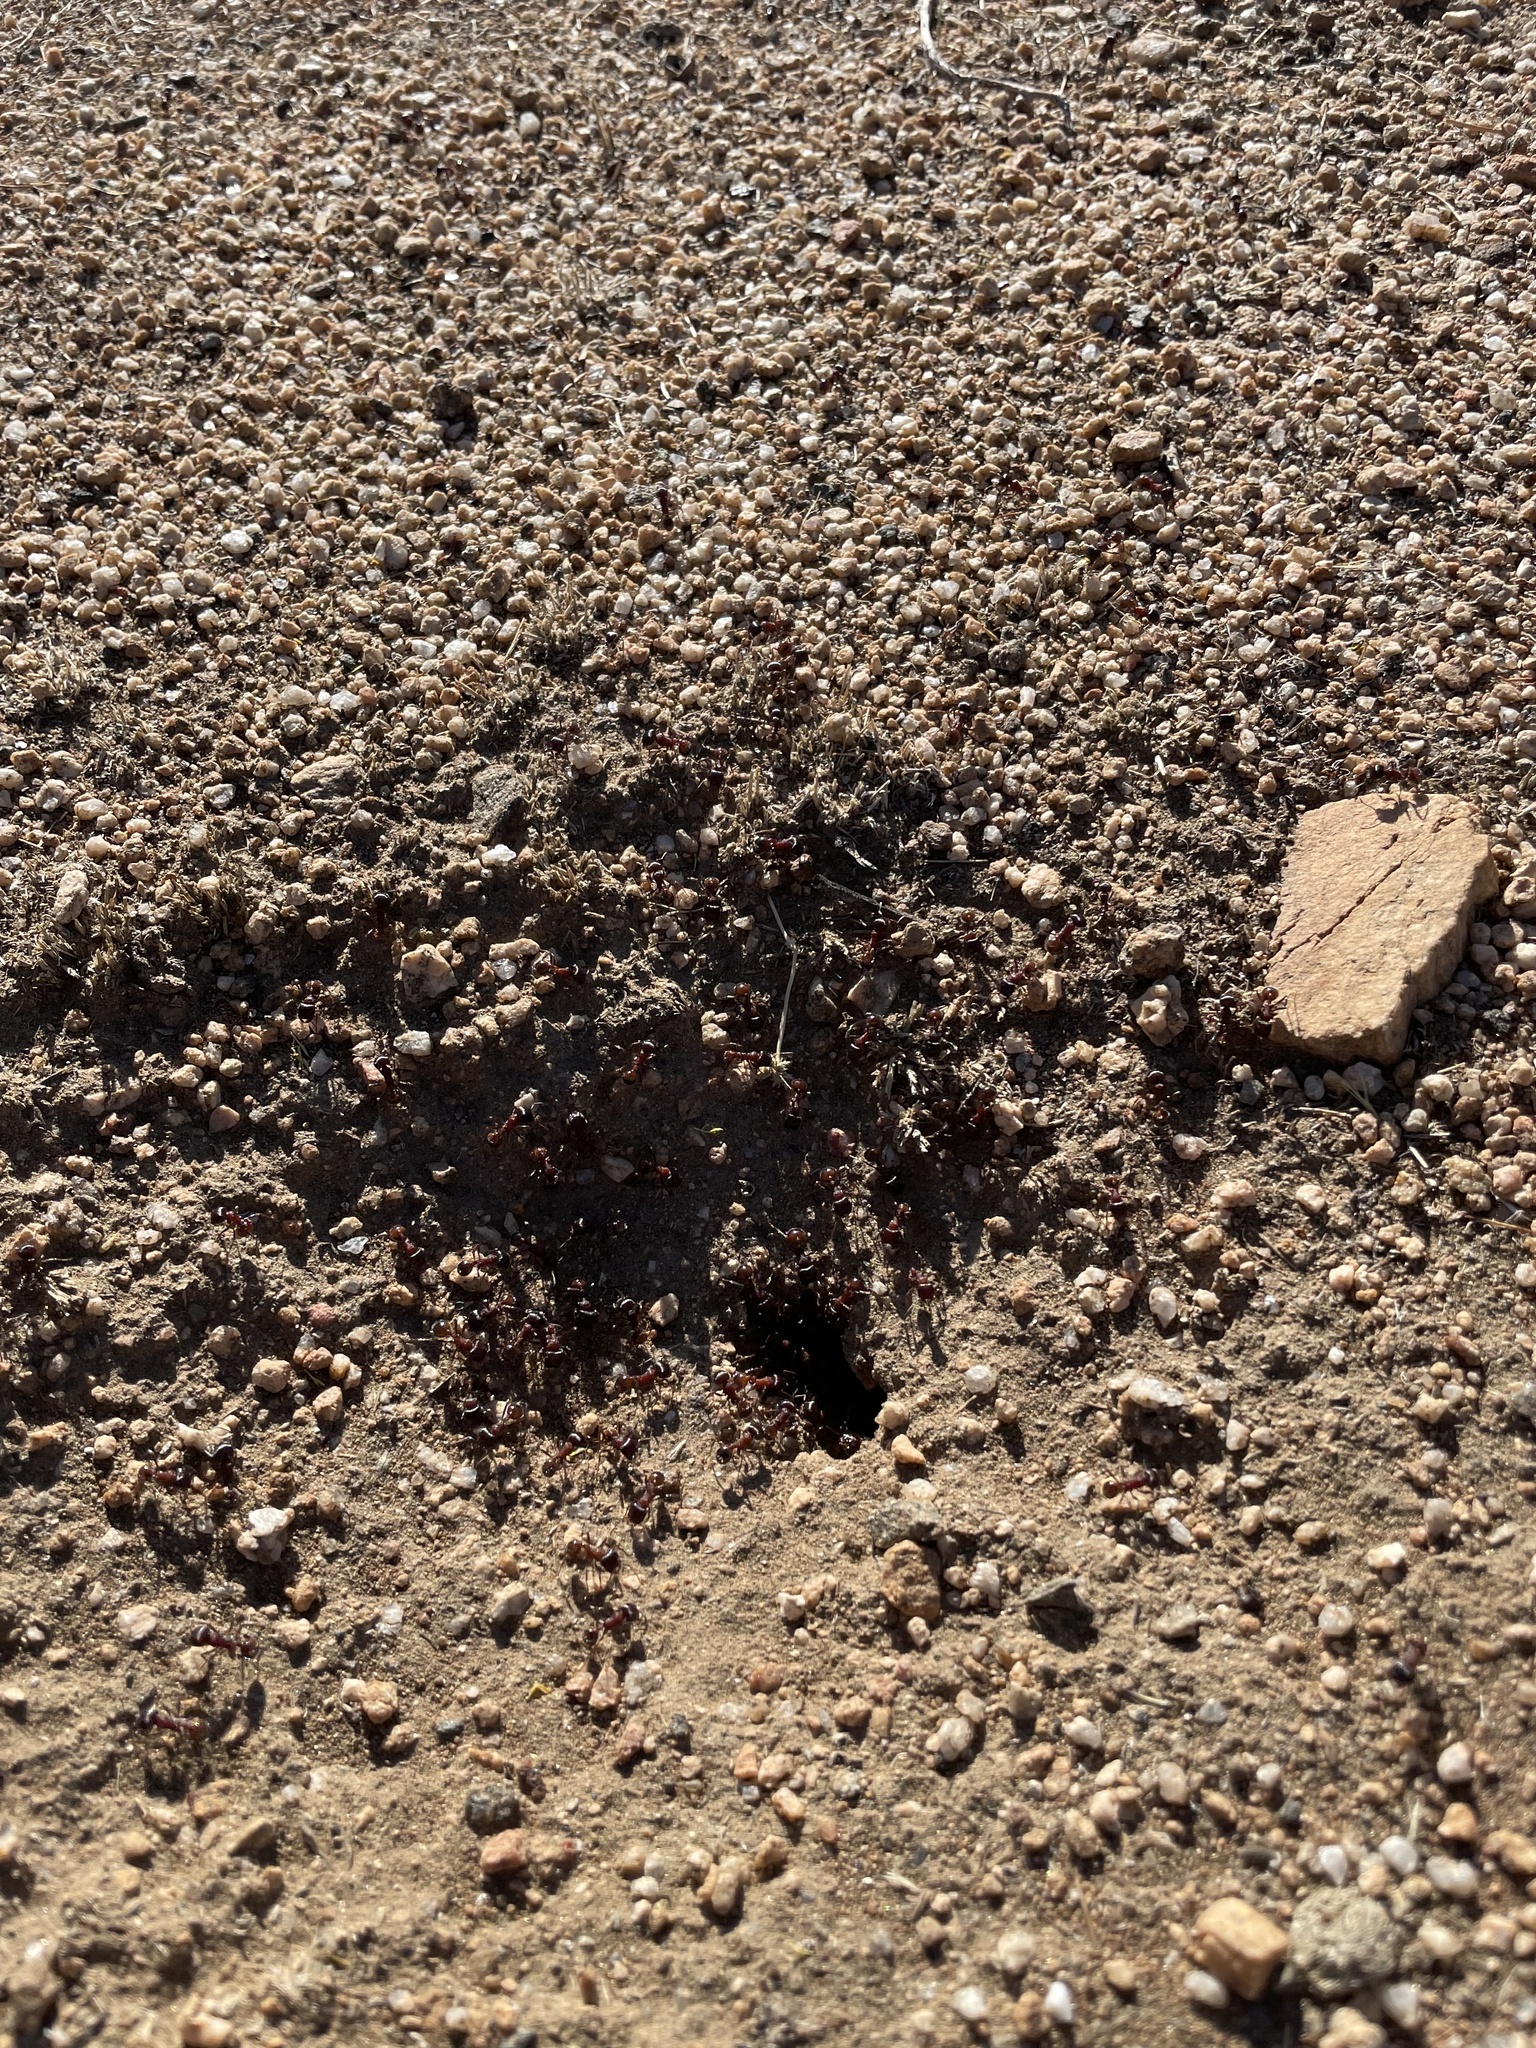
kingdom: Animalia
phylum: Arthropoda
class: Insecta
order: Hymenoptera
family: Formicidae
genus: Pogonomyrmex
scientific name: Pogonomyrmex rugosus
